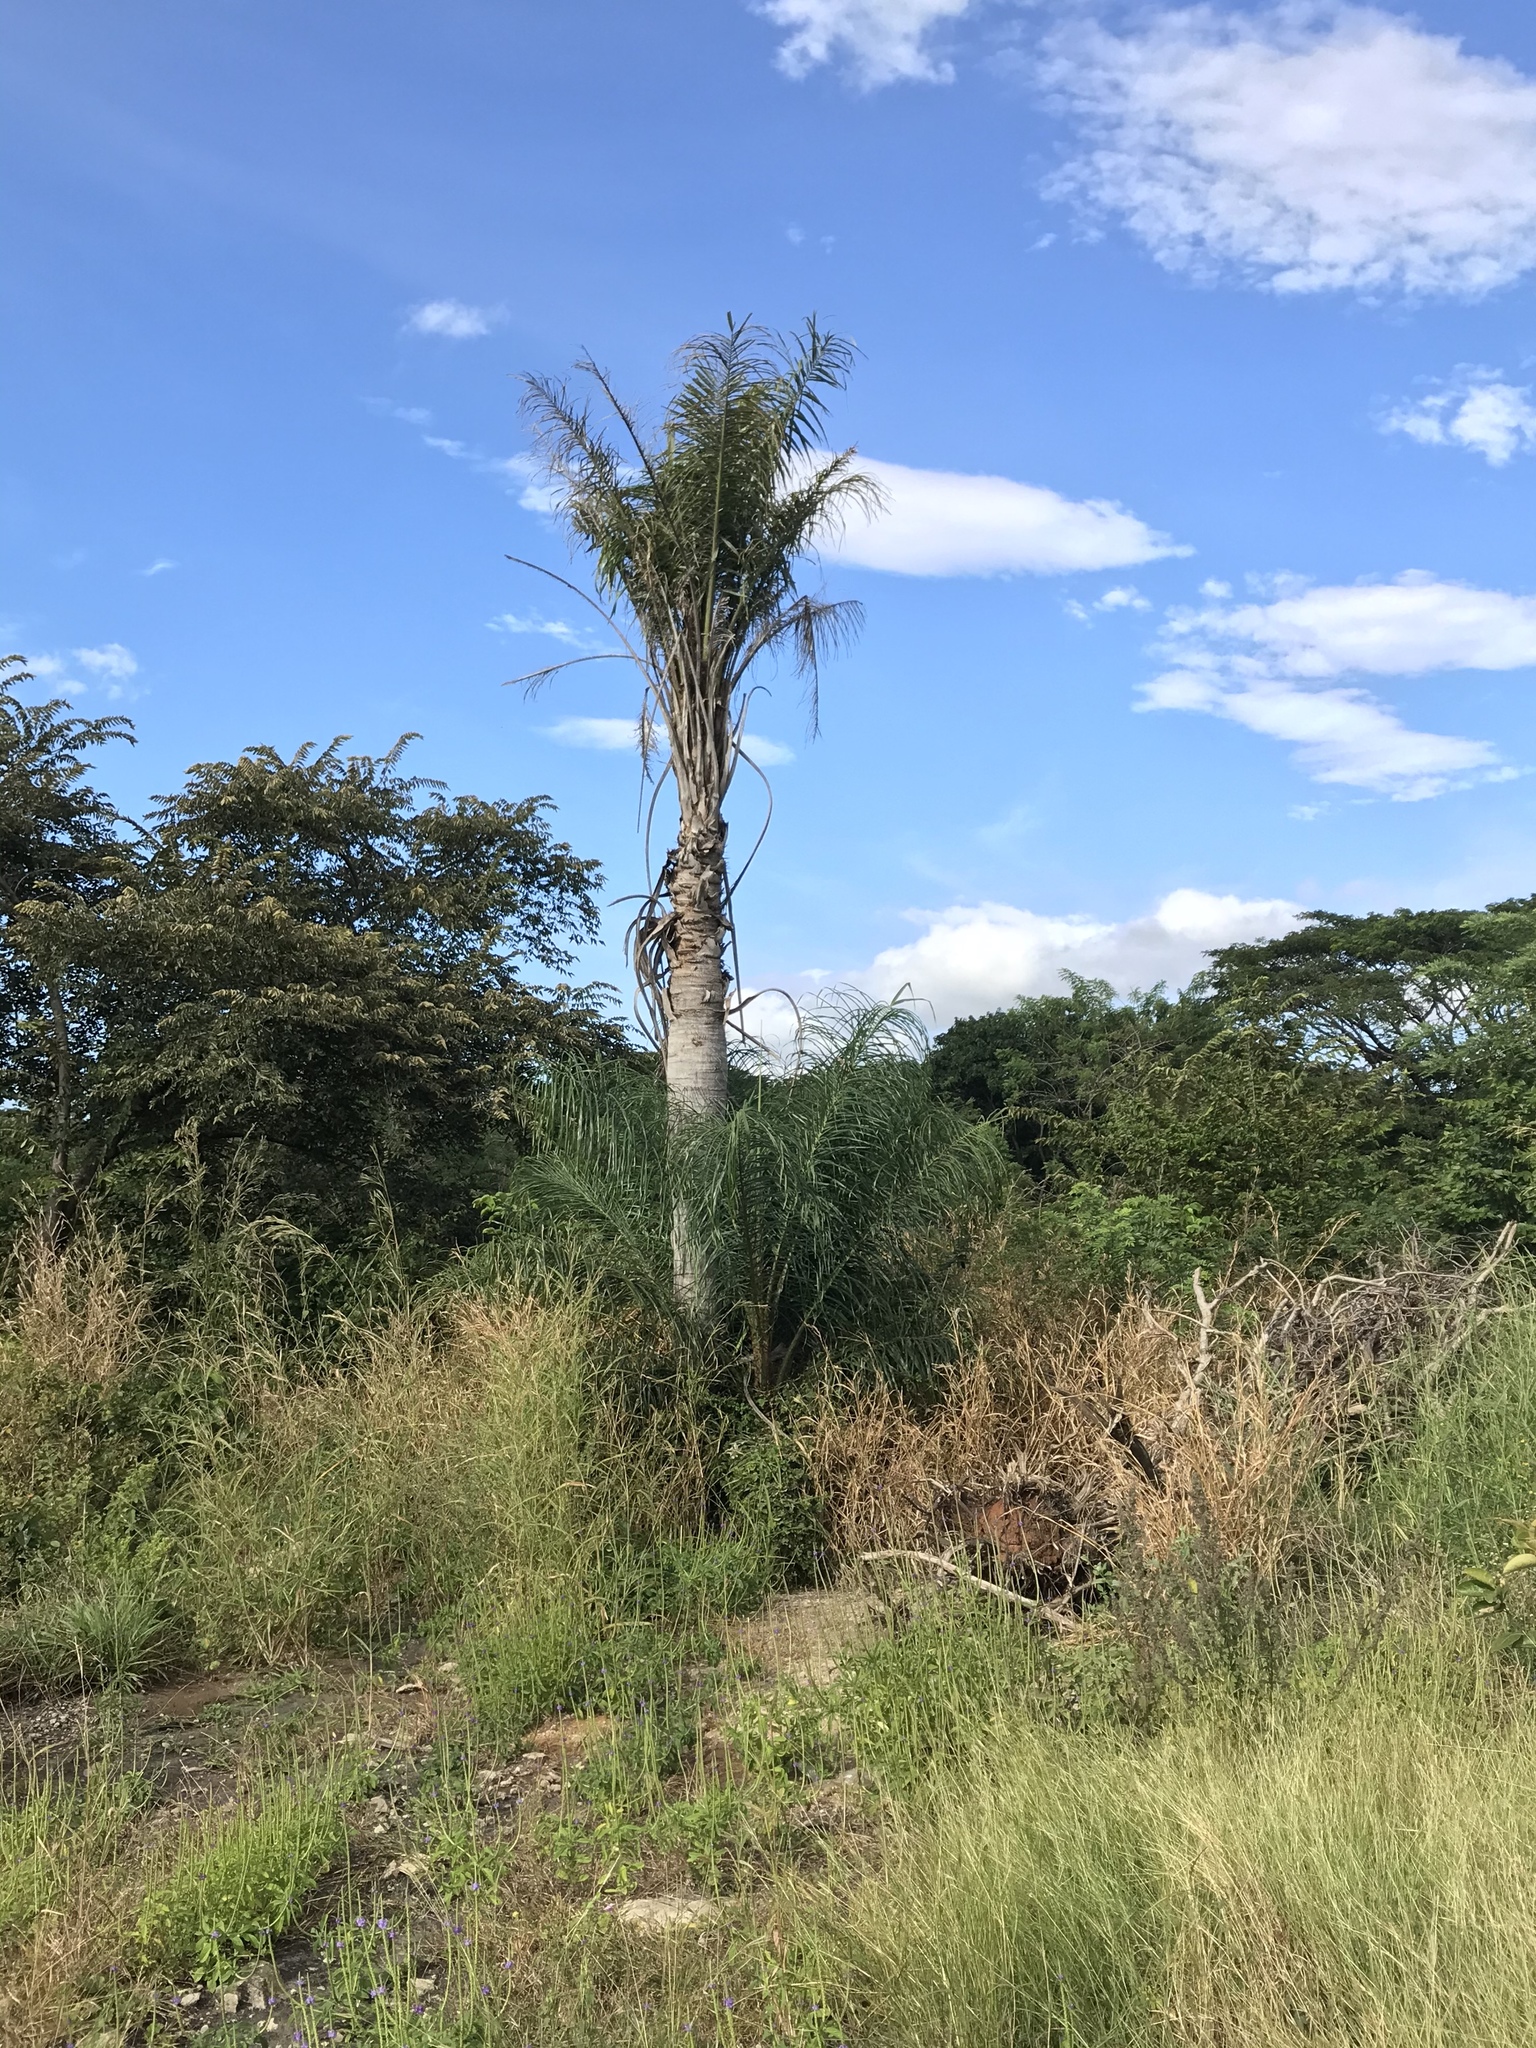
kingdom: Plantae
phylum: Tracheophyta
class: Liliopsida
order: Arecales
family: Arecaceae
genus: Acrocomia
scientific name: Acrocomia aculeata
